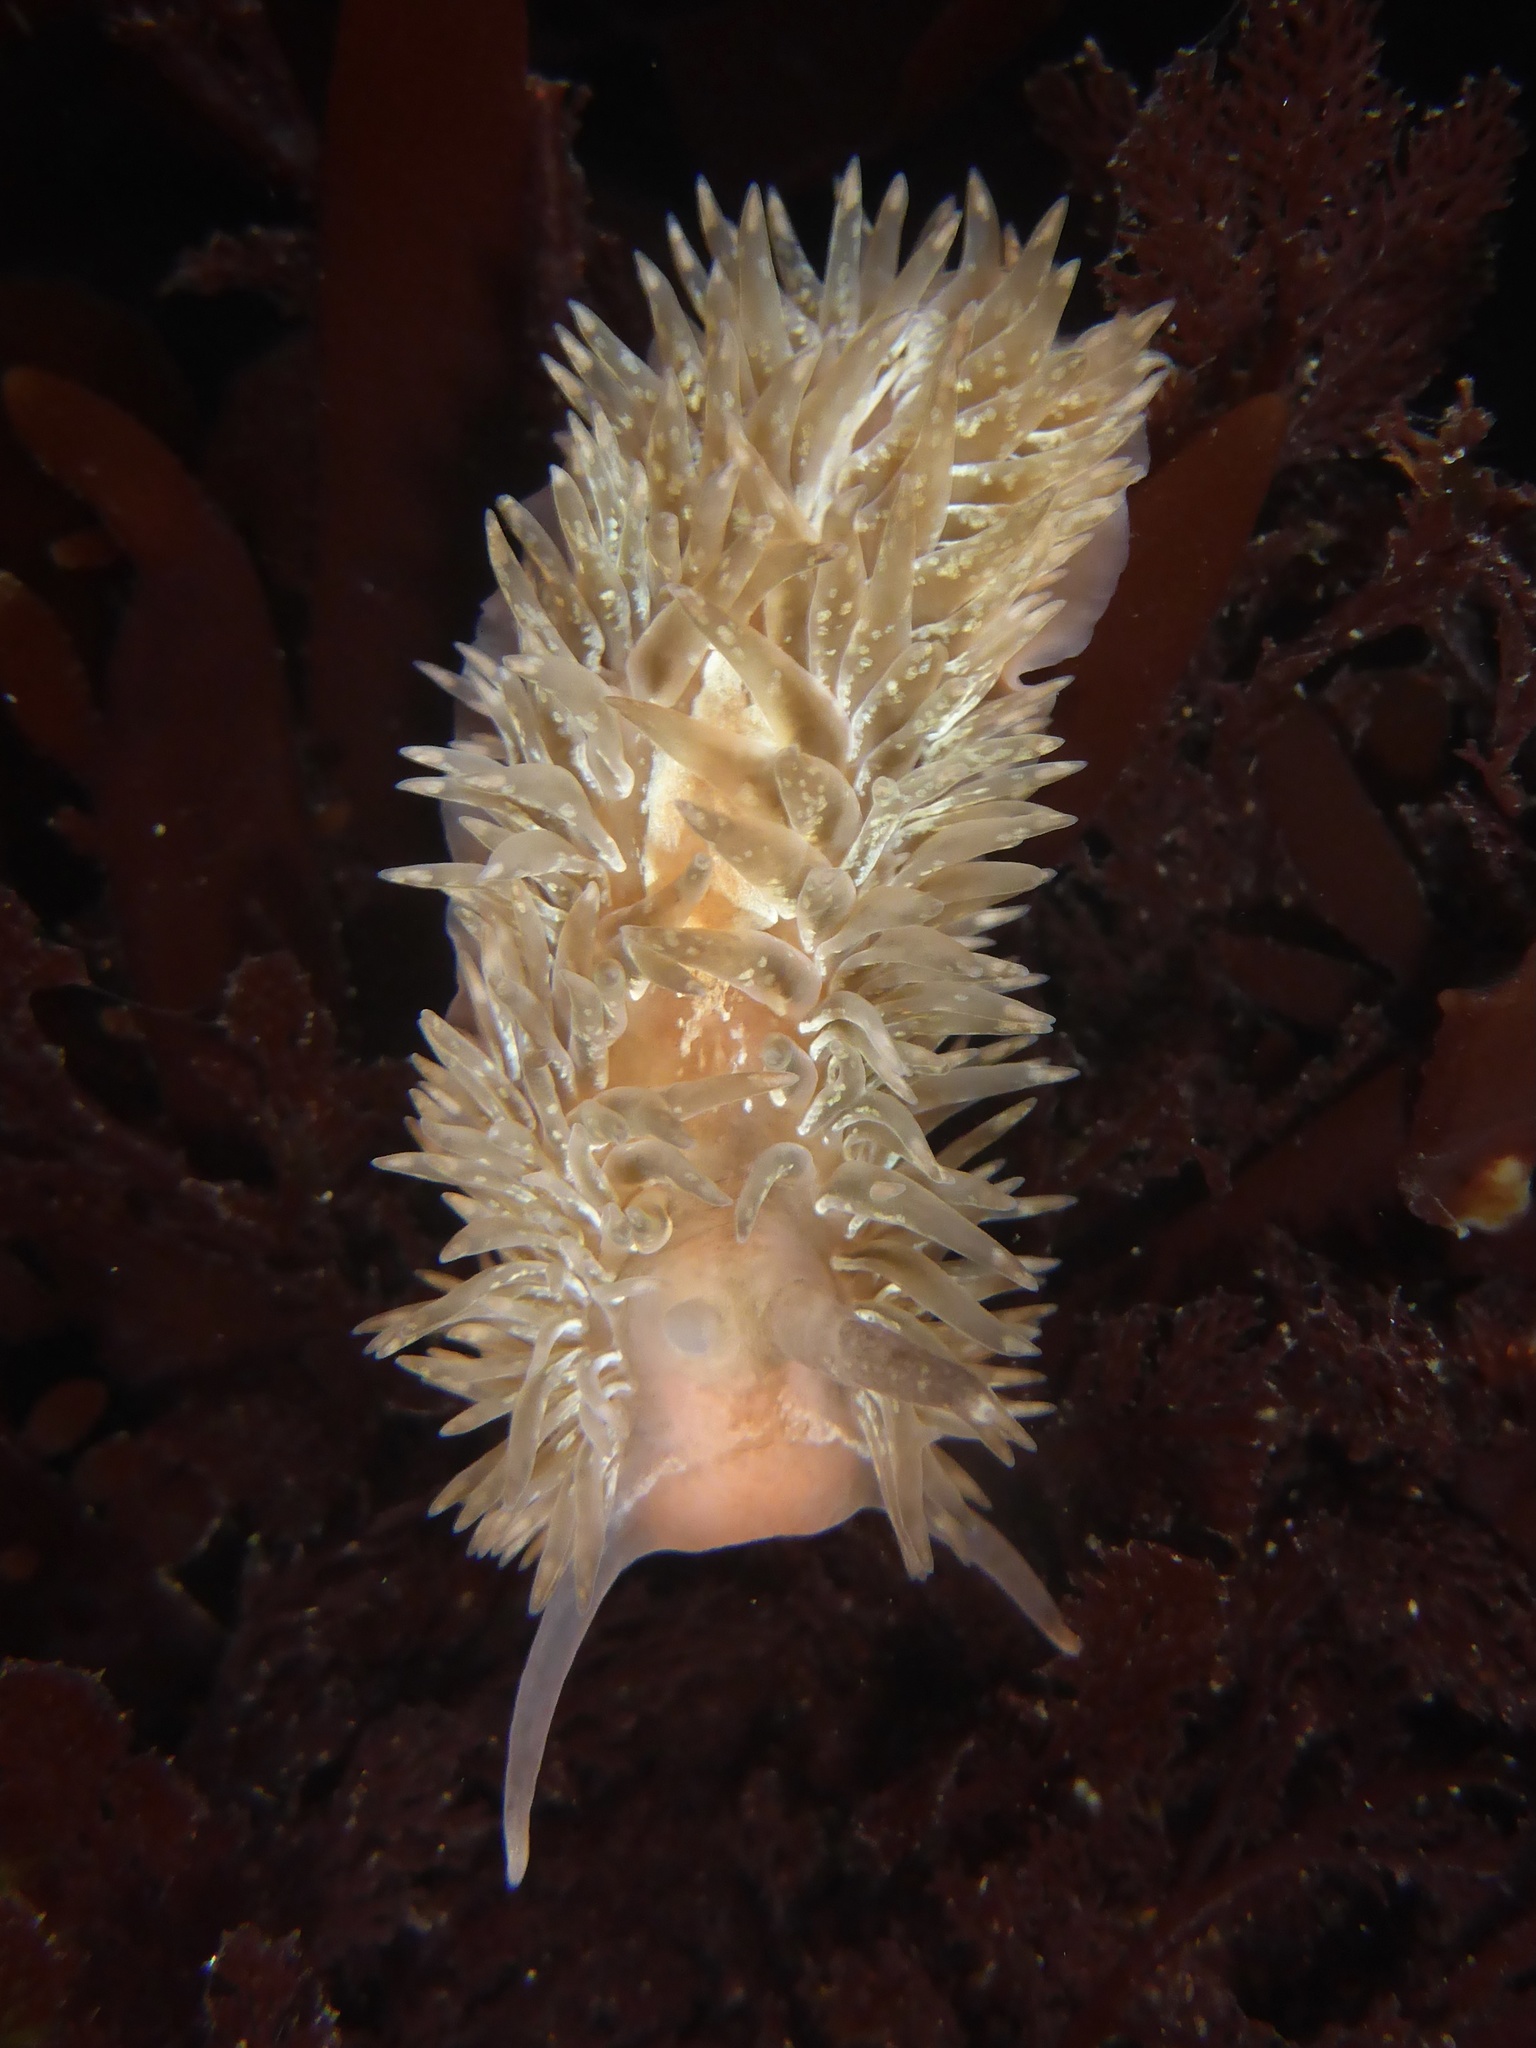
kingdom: Animalia
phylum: Mollusca
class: Gastropoda
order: Nudibranchia
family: Aeolidiidae
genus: Aeolidia
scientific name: Aeolidia loui
